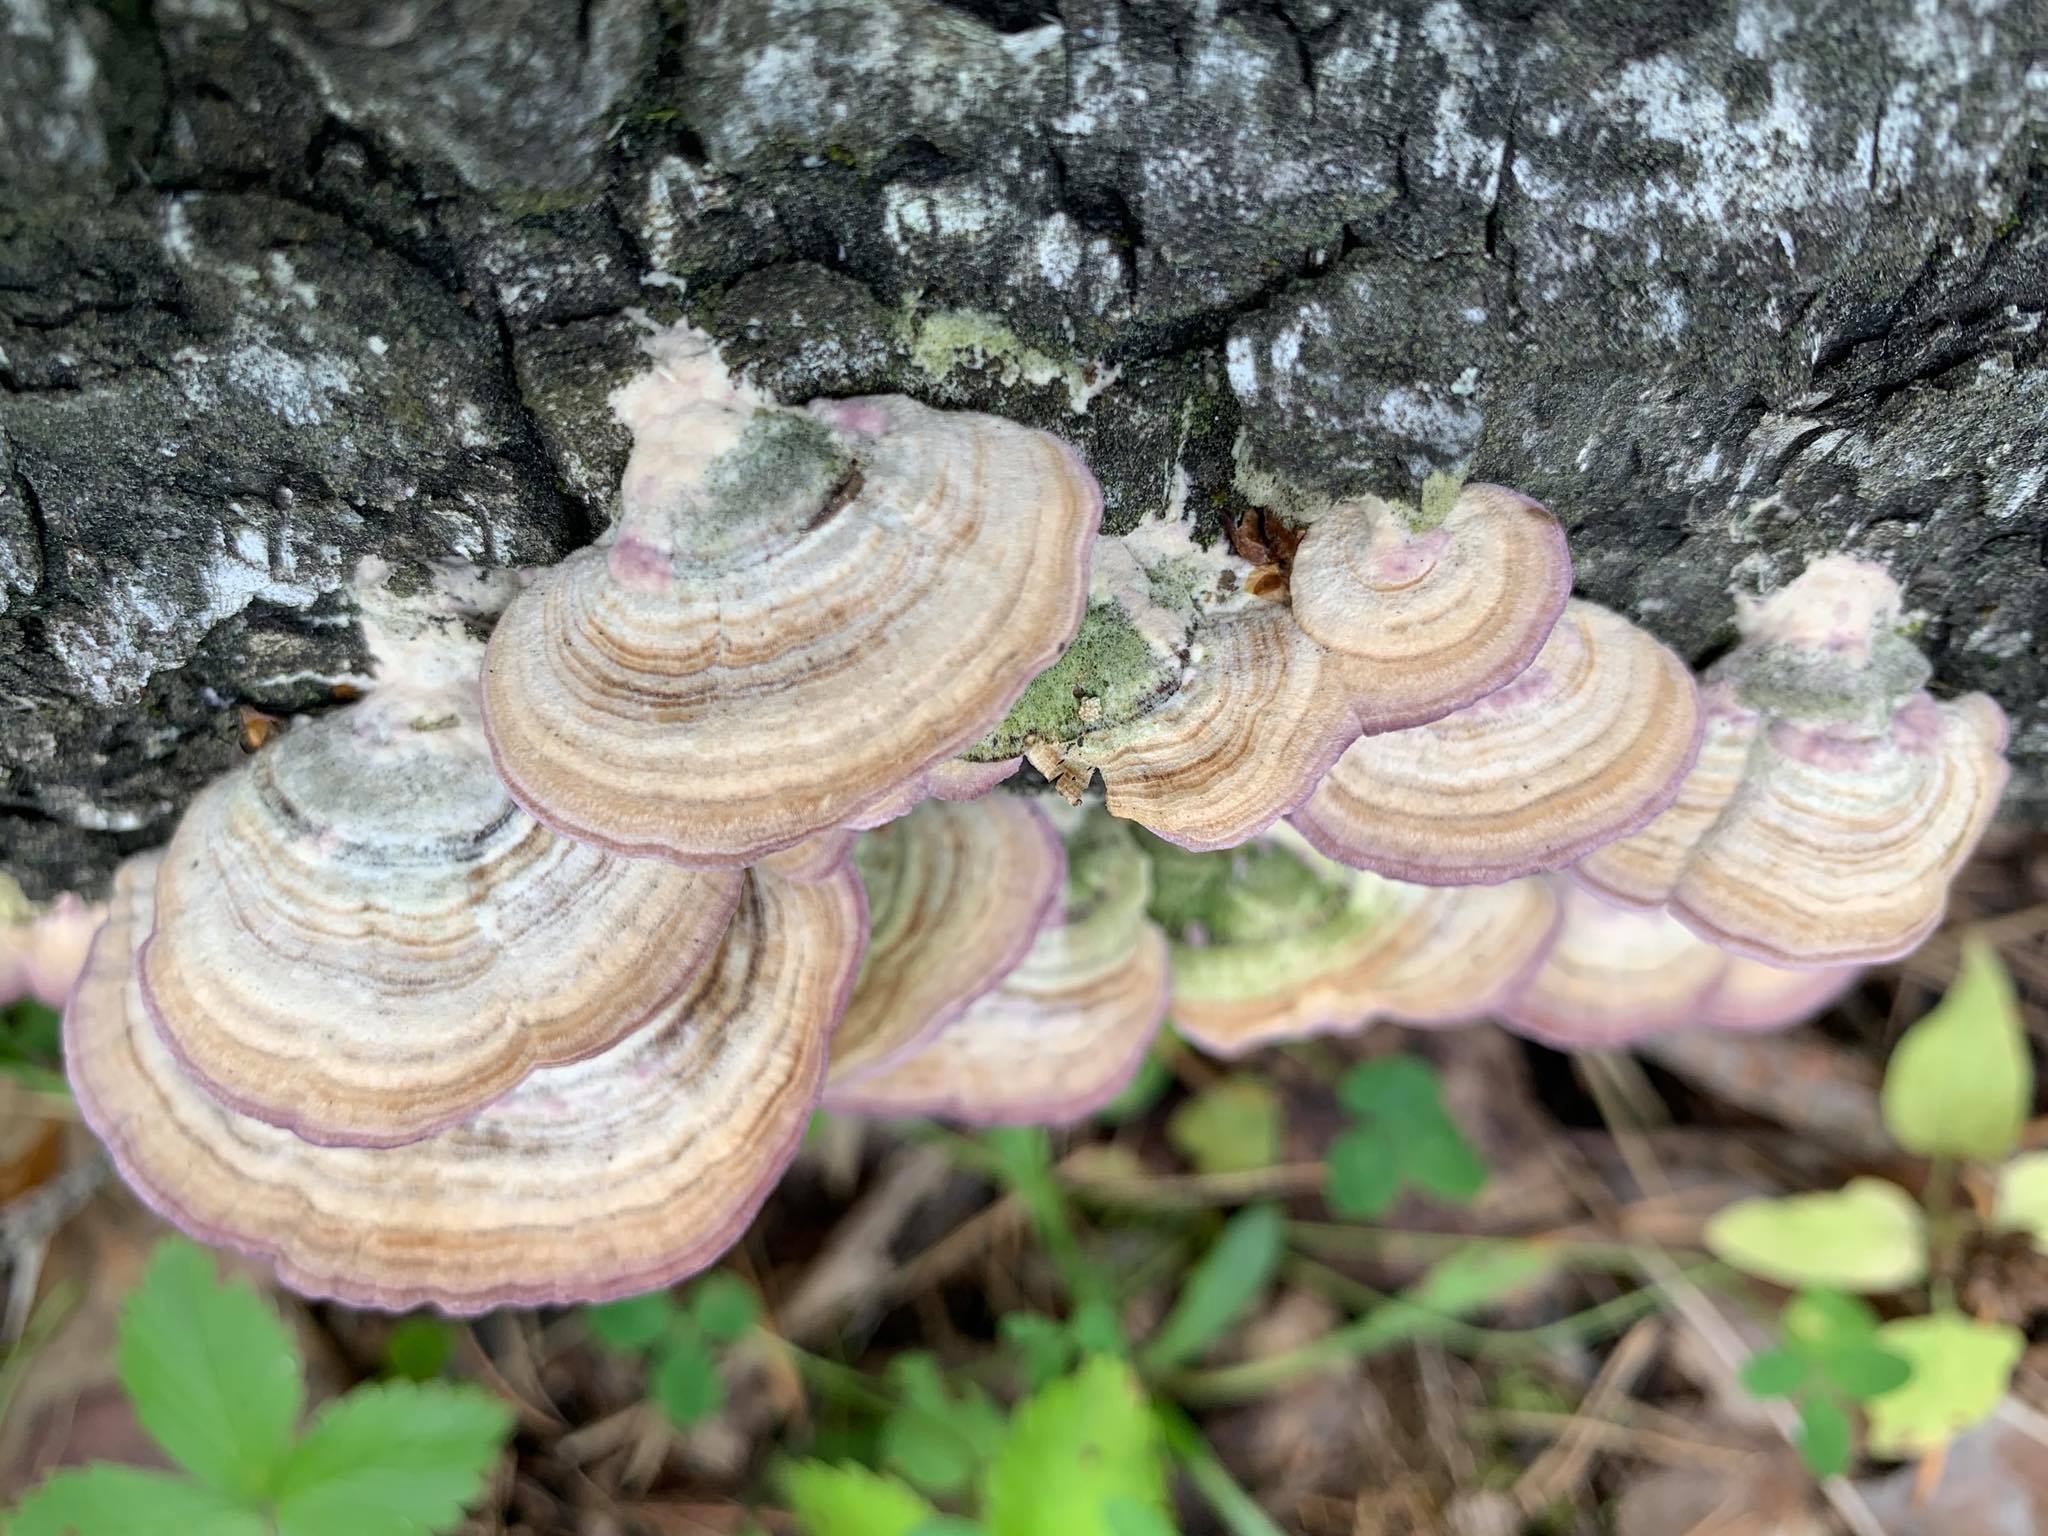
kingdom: Fungi
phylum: Basidiomycota
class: Agaricomycetes
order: Hymenochaetales
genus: Trichaptum
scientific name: Trichaptum biforme
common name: Violet-toothed polypore
